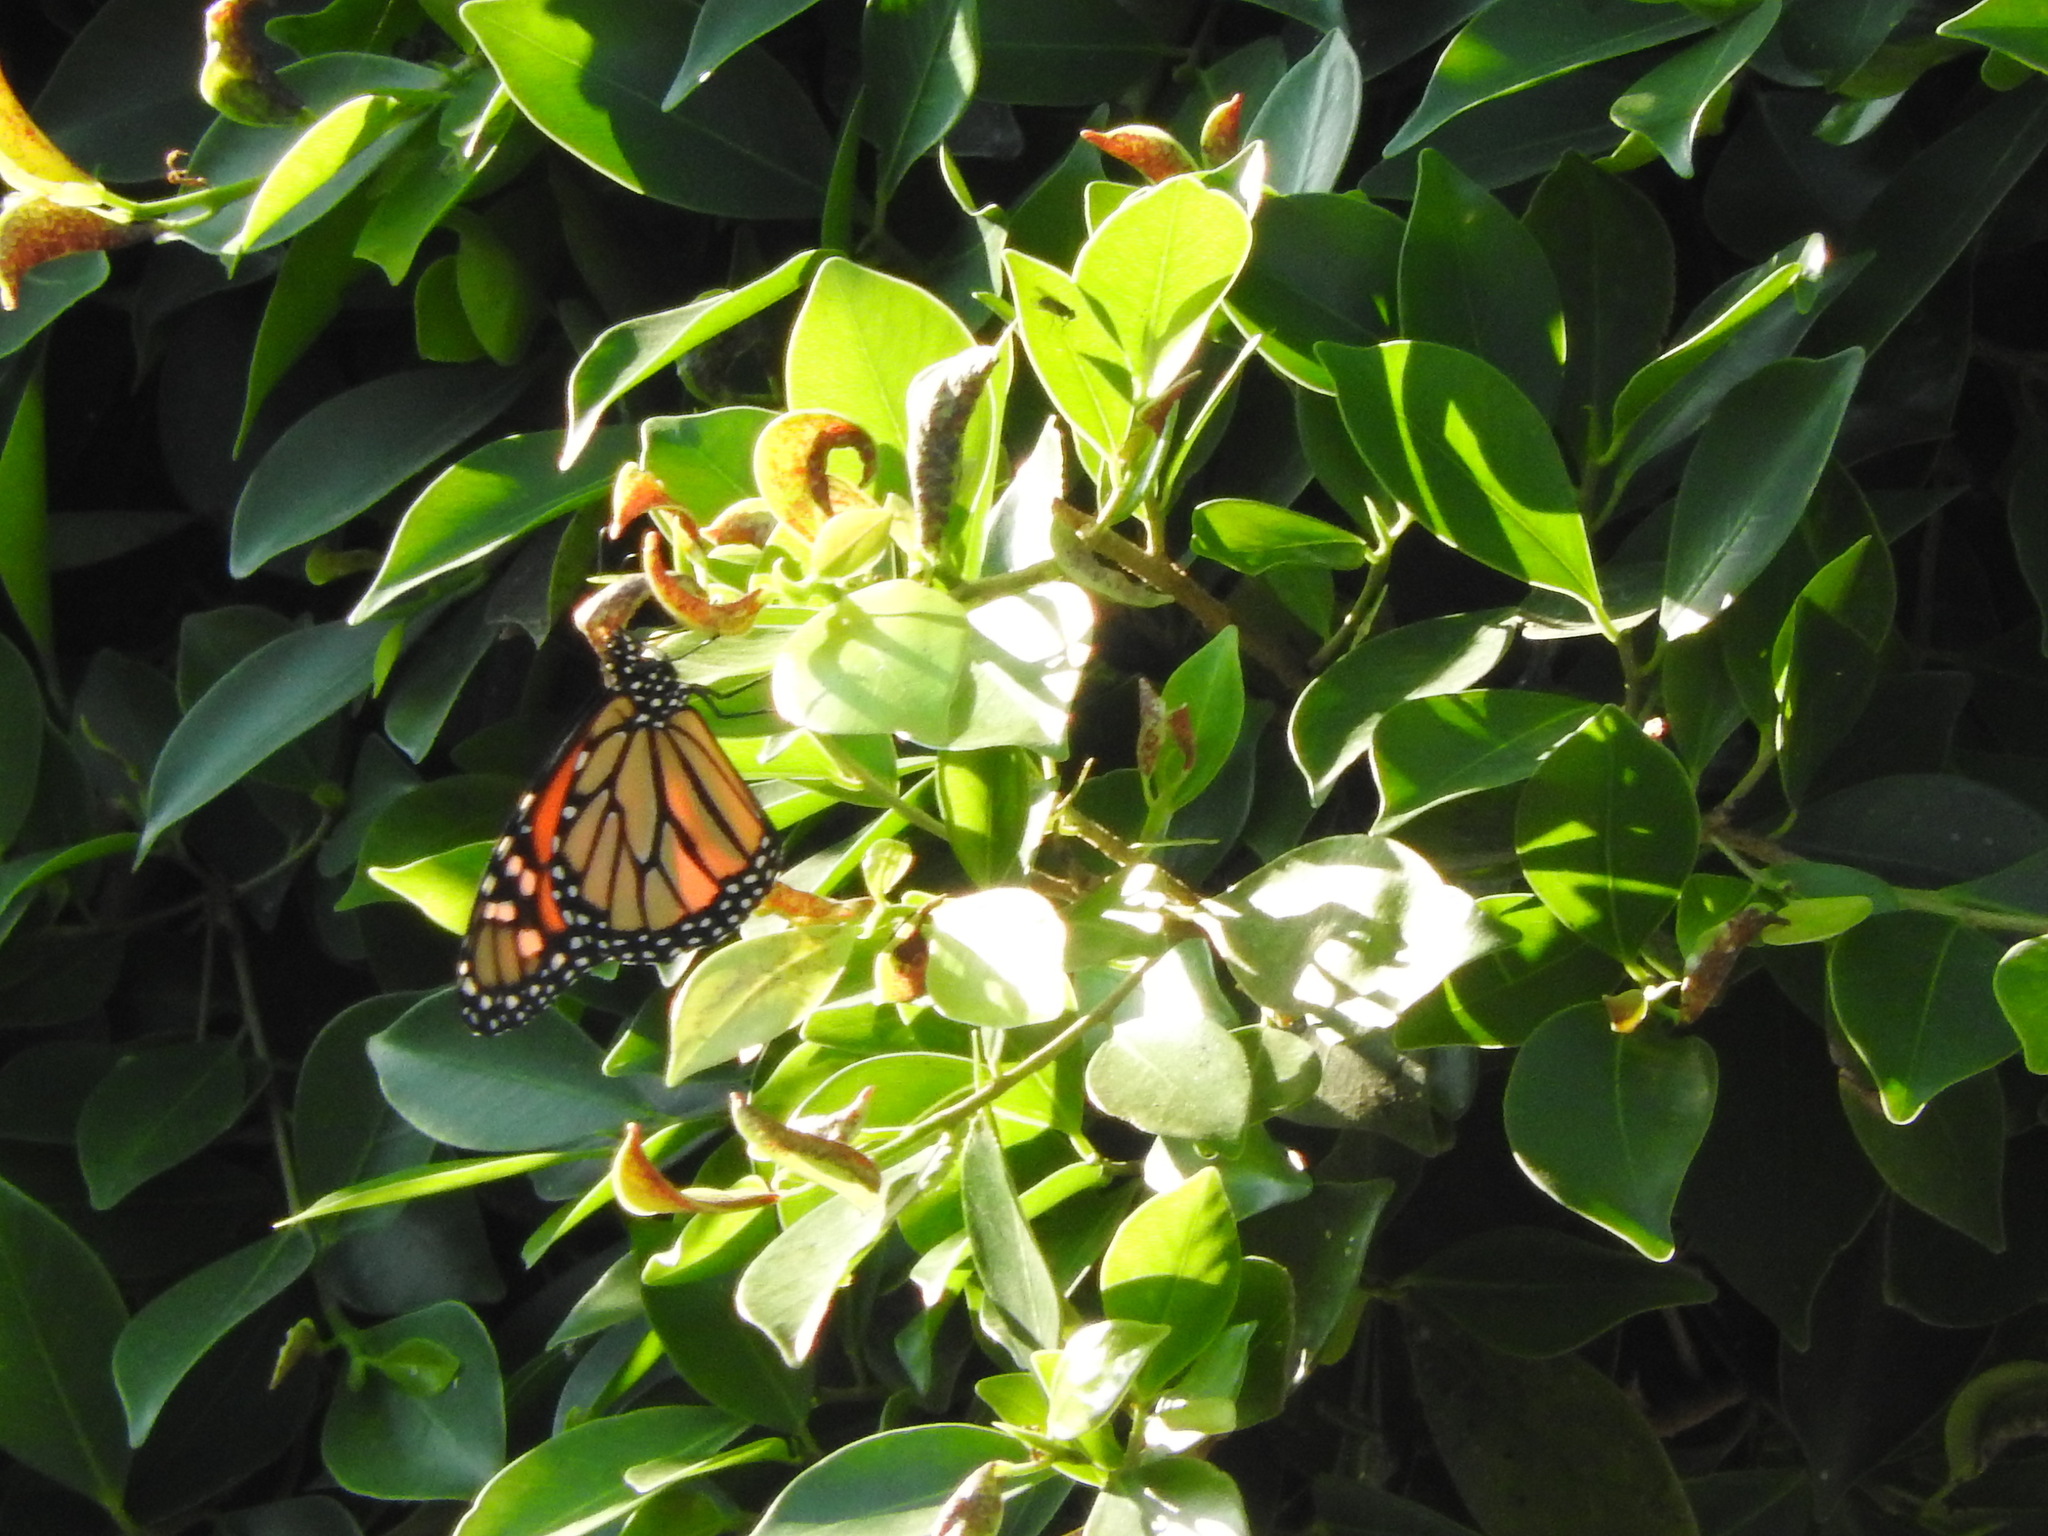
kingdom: Animalia
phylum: Arthropoda
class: Insecta
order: Lepidoptera
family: Nymphalidae
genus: Danaus
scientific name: Danaus plexippus
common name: Monarch
